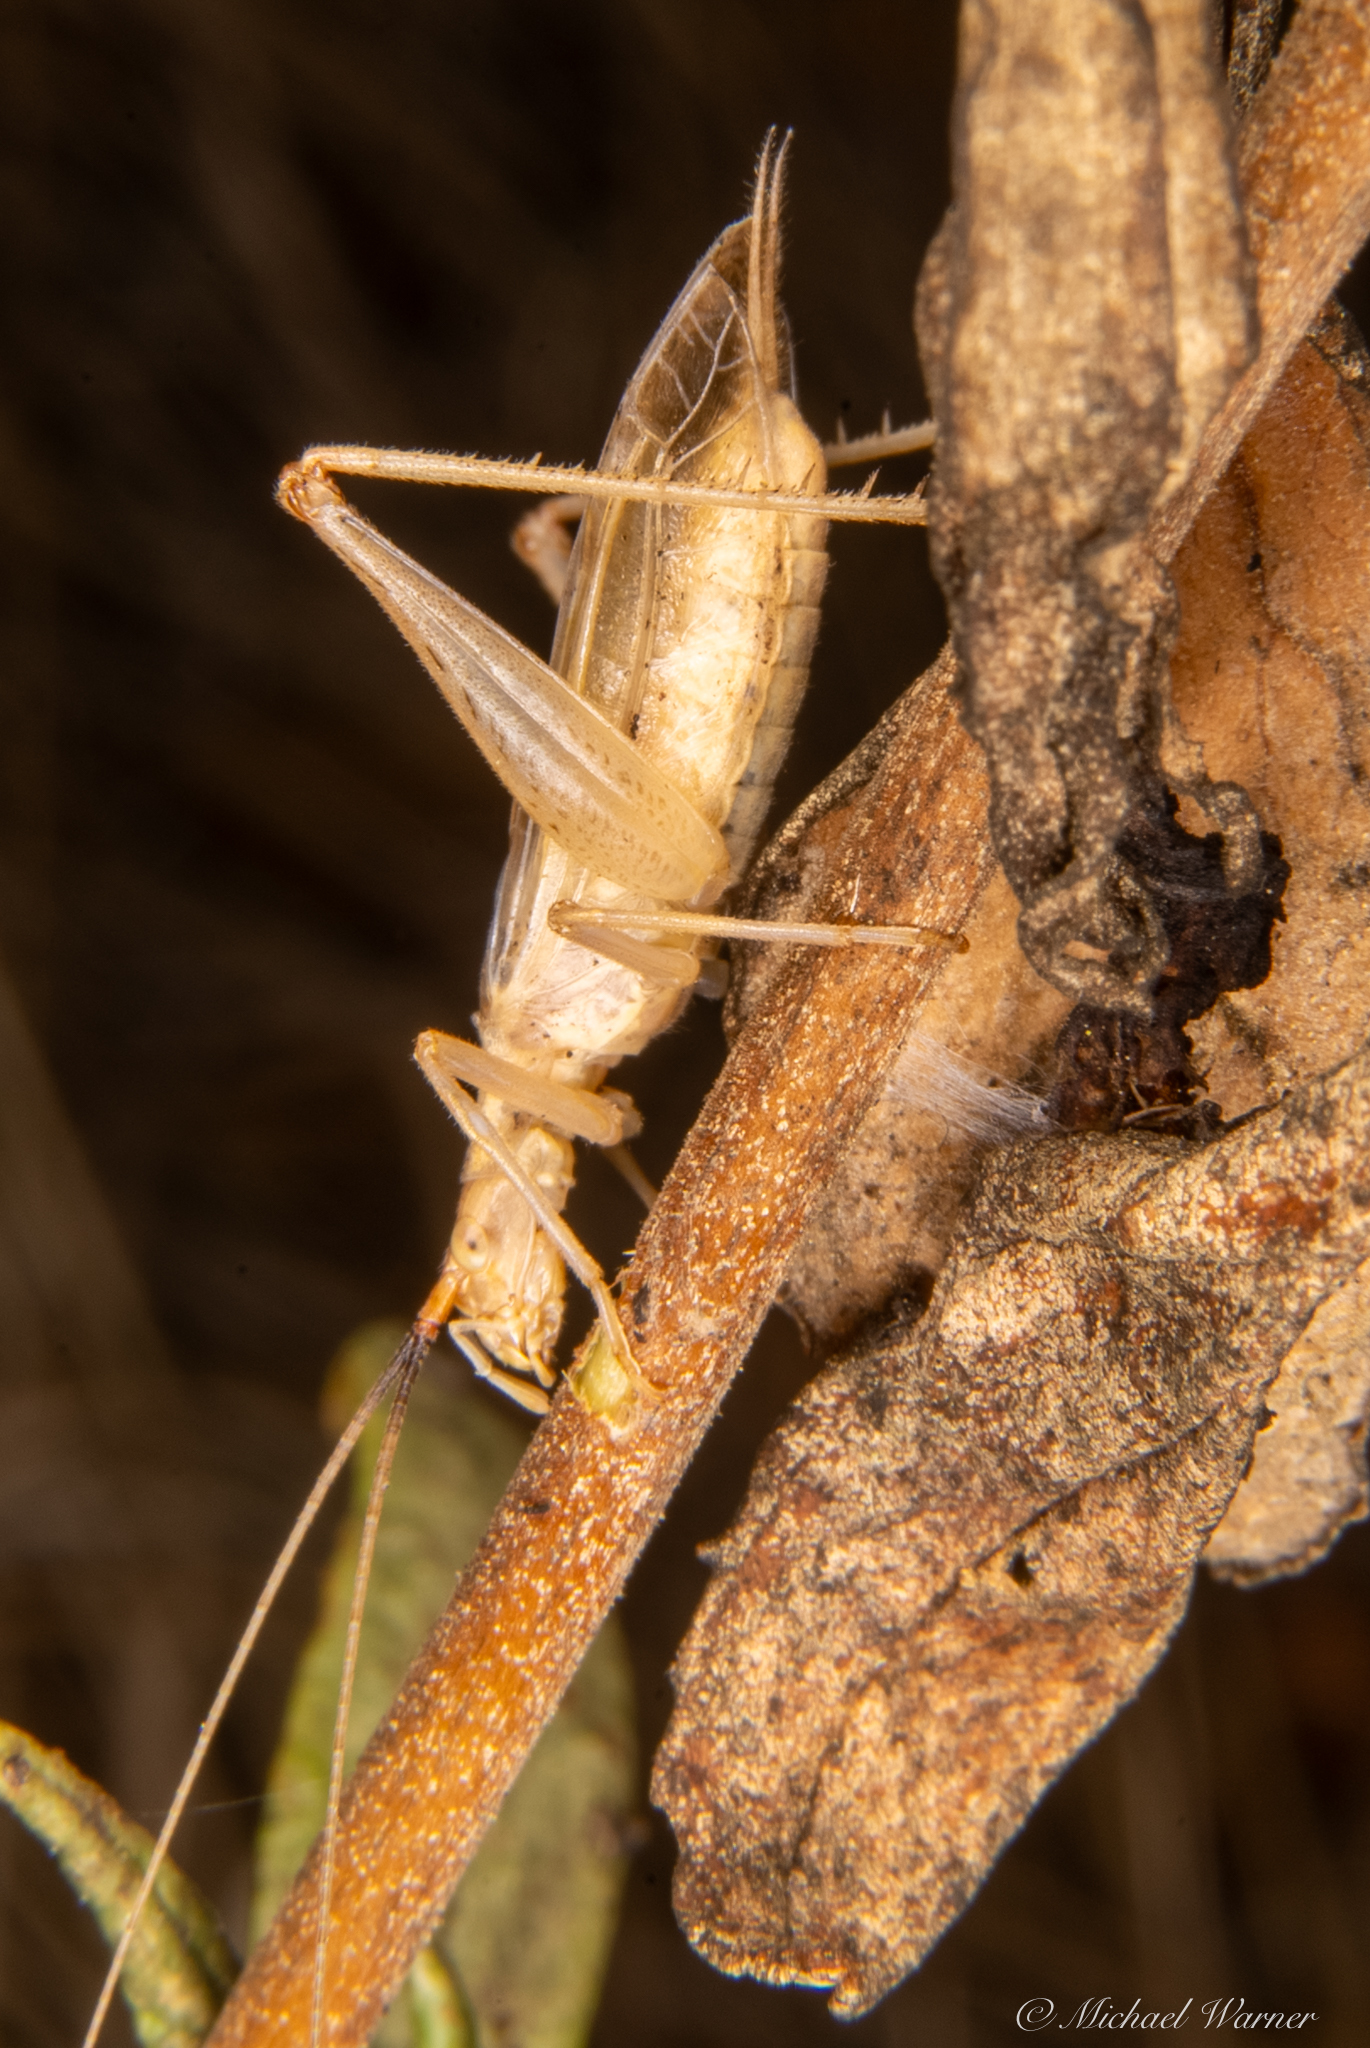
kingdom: Animalia
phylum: Arthropoda
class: Insecta
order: Orthoptera
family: Gryllidae
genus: Oecanthus
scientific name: Oecanthus californicus
